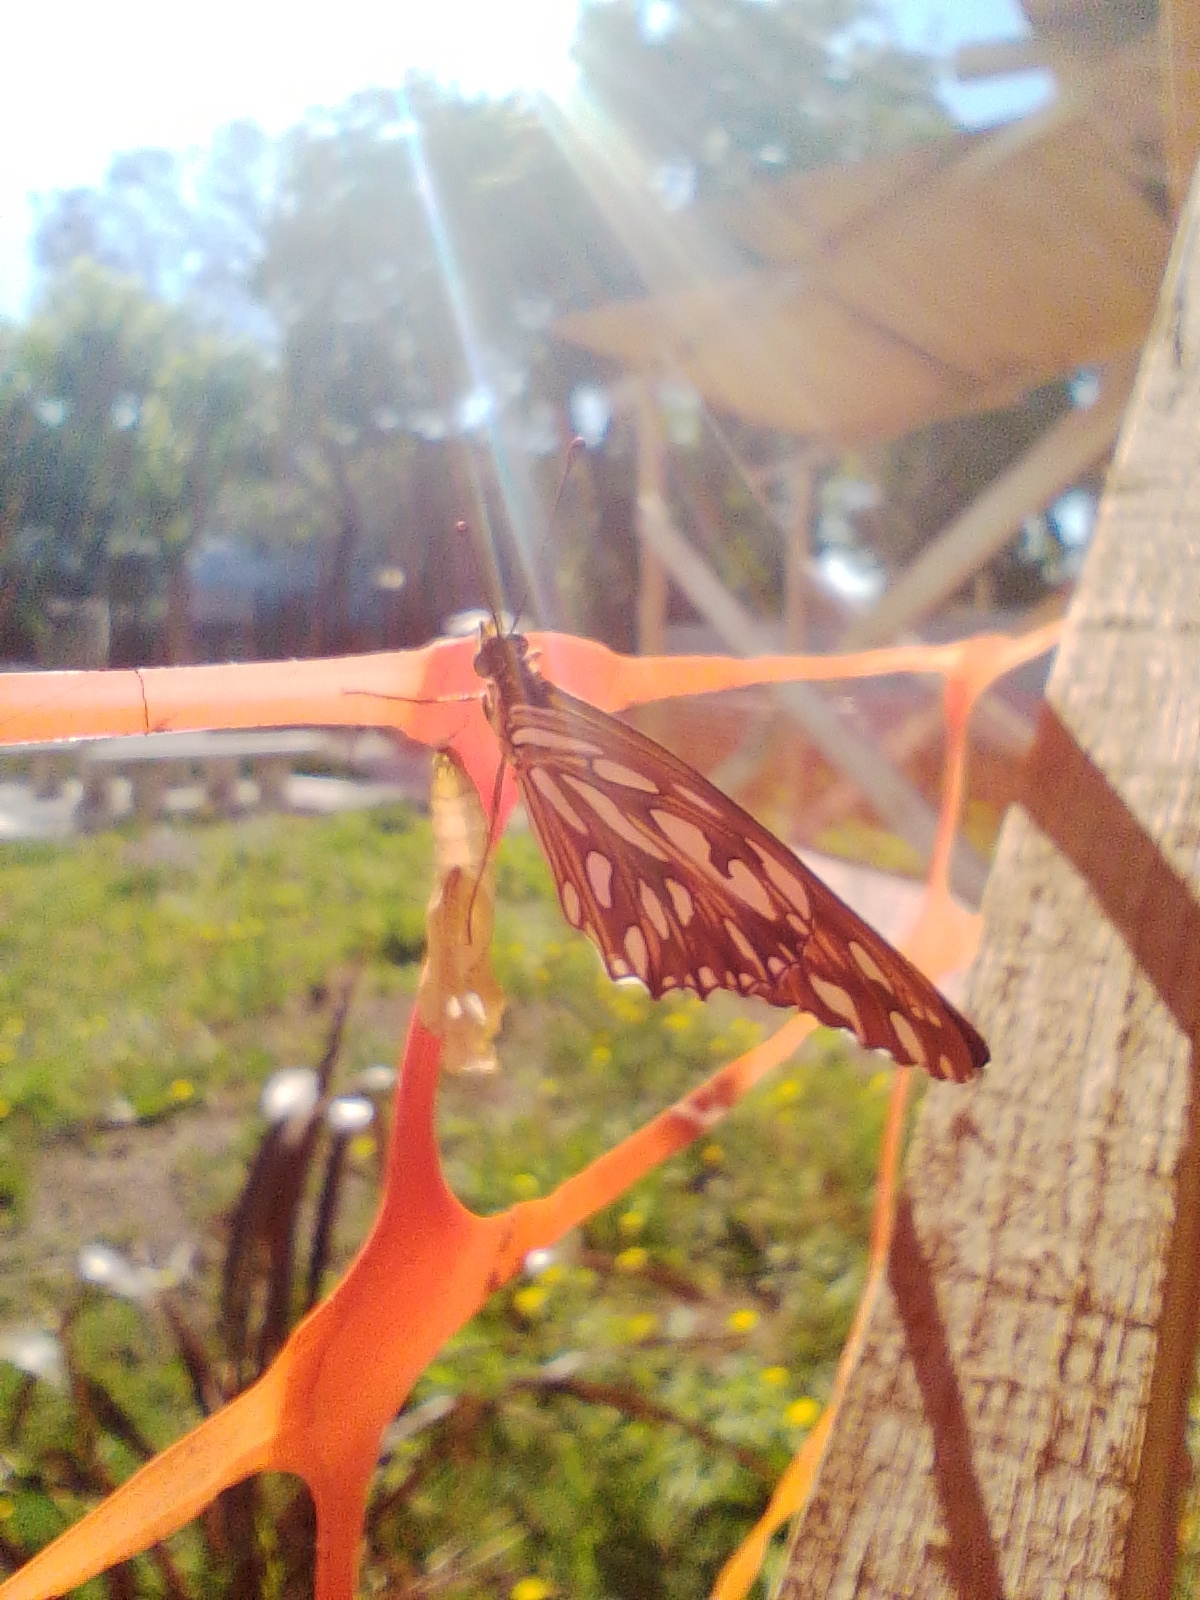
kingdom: Animalia
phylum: Arthropoda
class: Insecta
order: Lepidoptera
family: Nymphalidae
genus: Dione
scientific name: Dione vanillae
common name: Gulf fritillary
